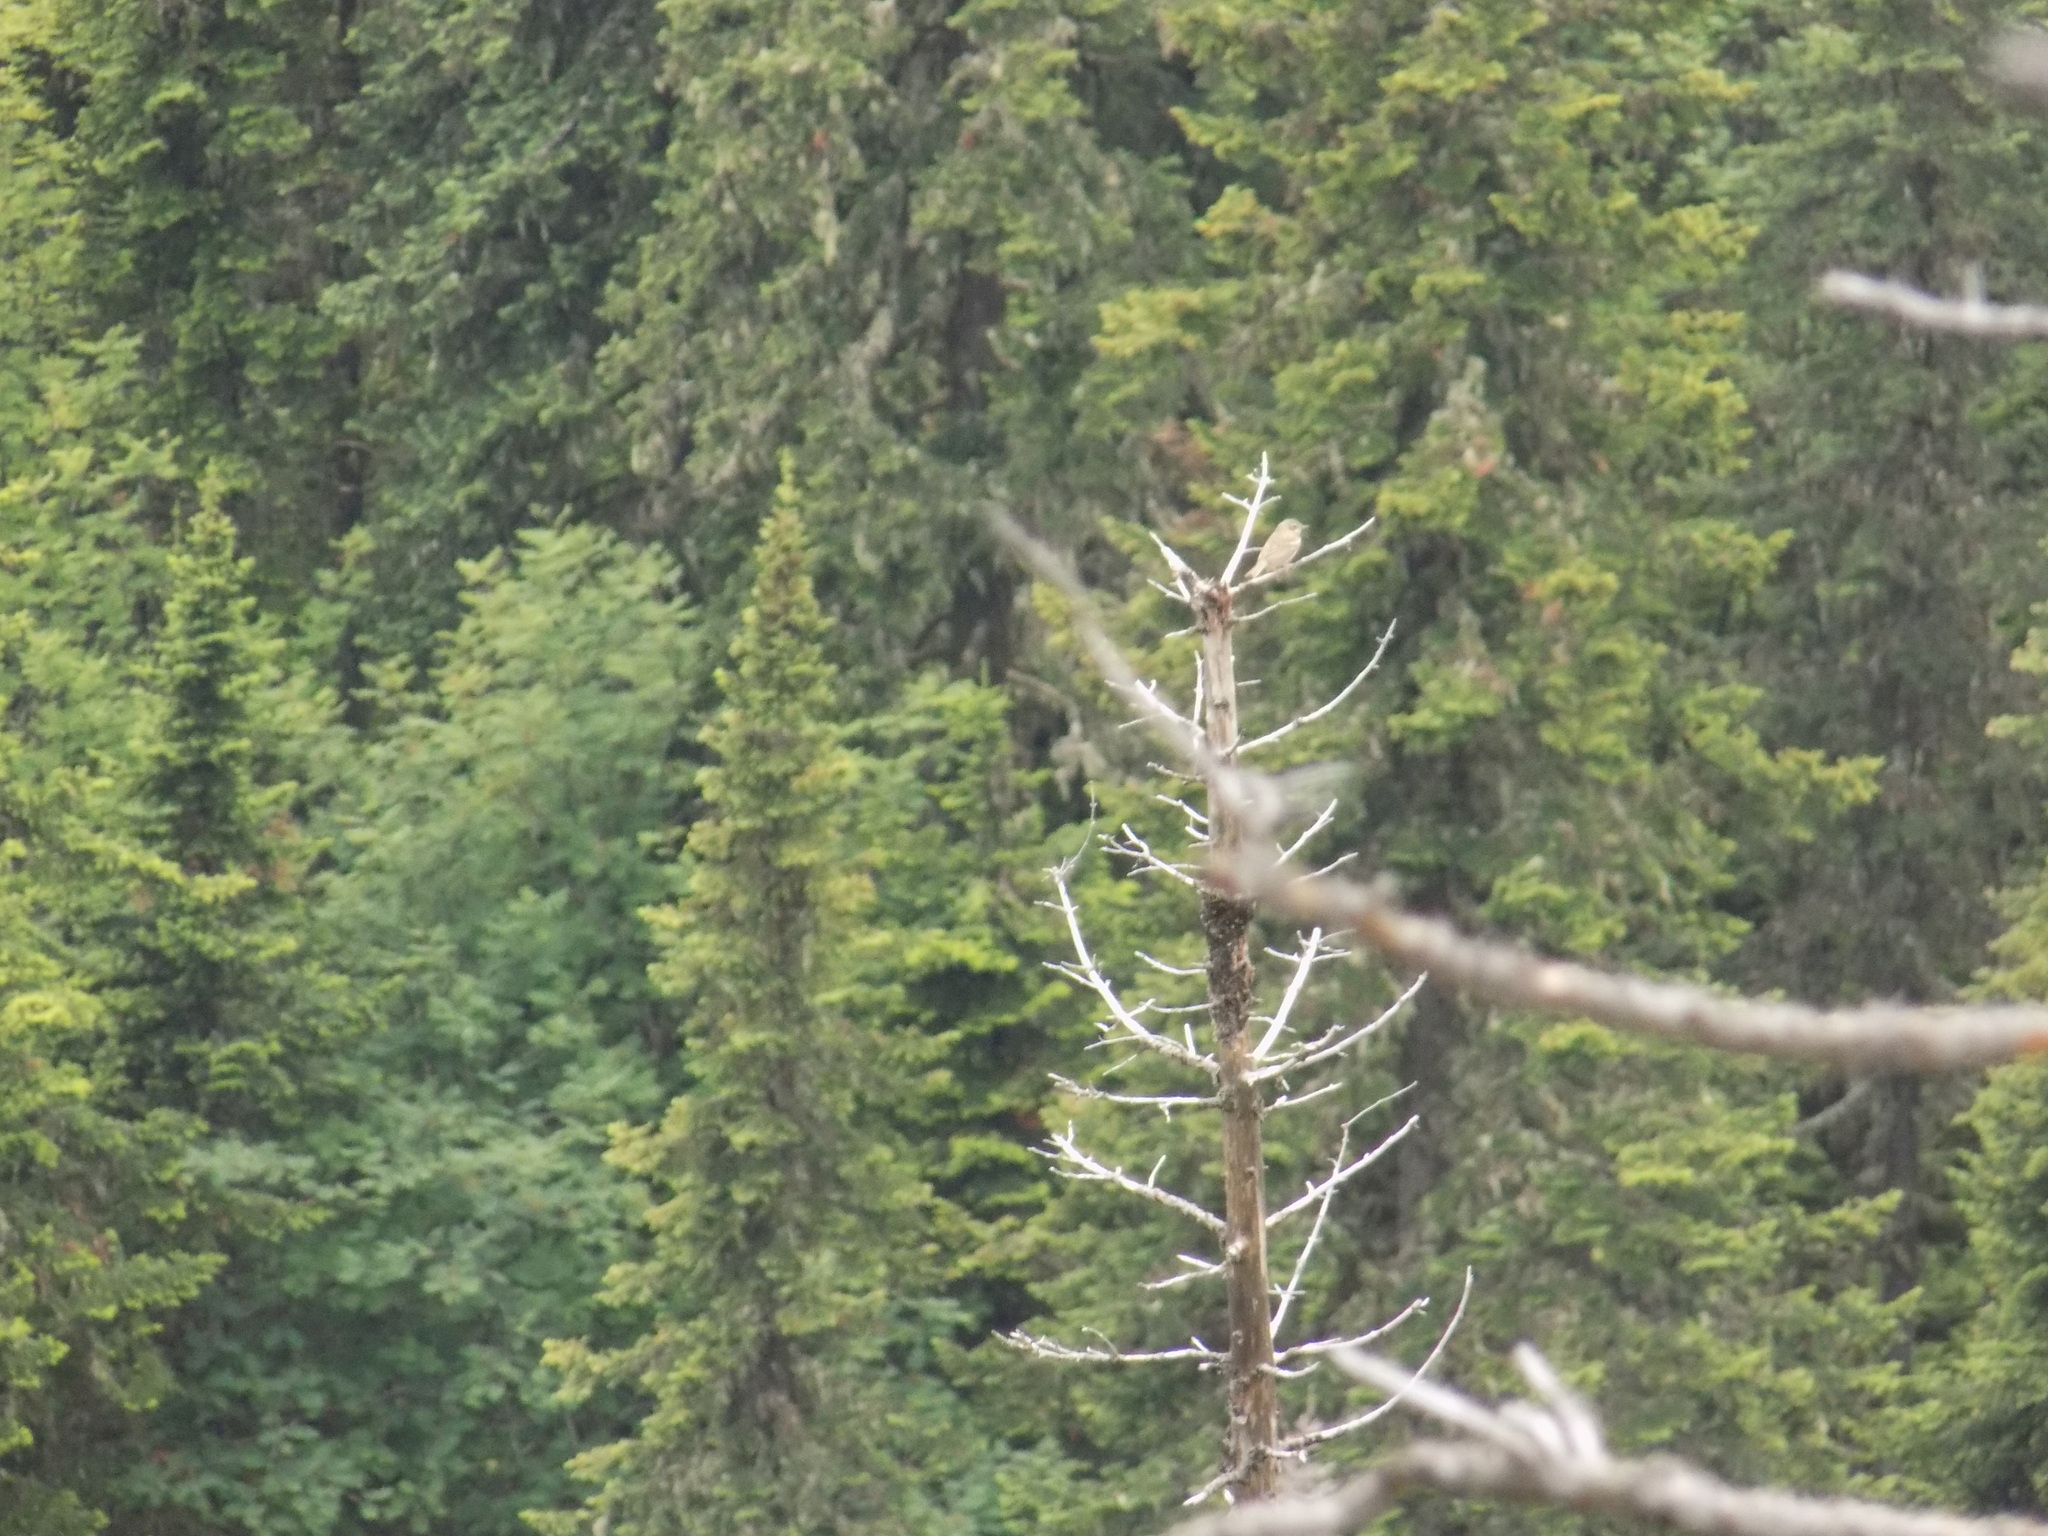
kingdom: Animalia
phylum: Chordata
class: Aves
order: Passeriformes
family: Motacillidae
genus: Anthus
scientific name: Anthus hodgsoni
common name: Olive-backed pipit
